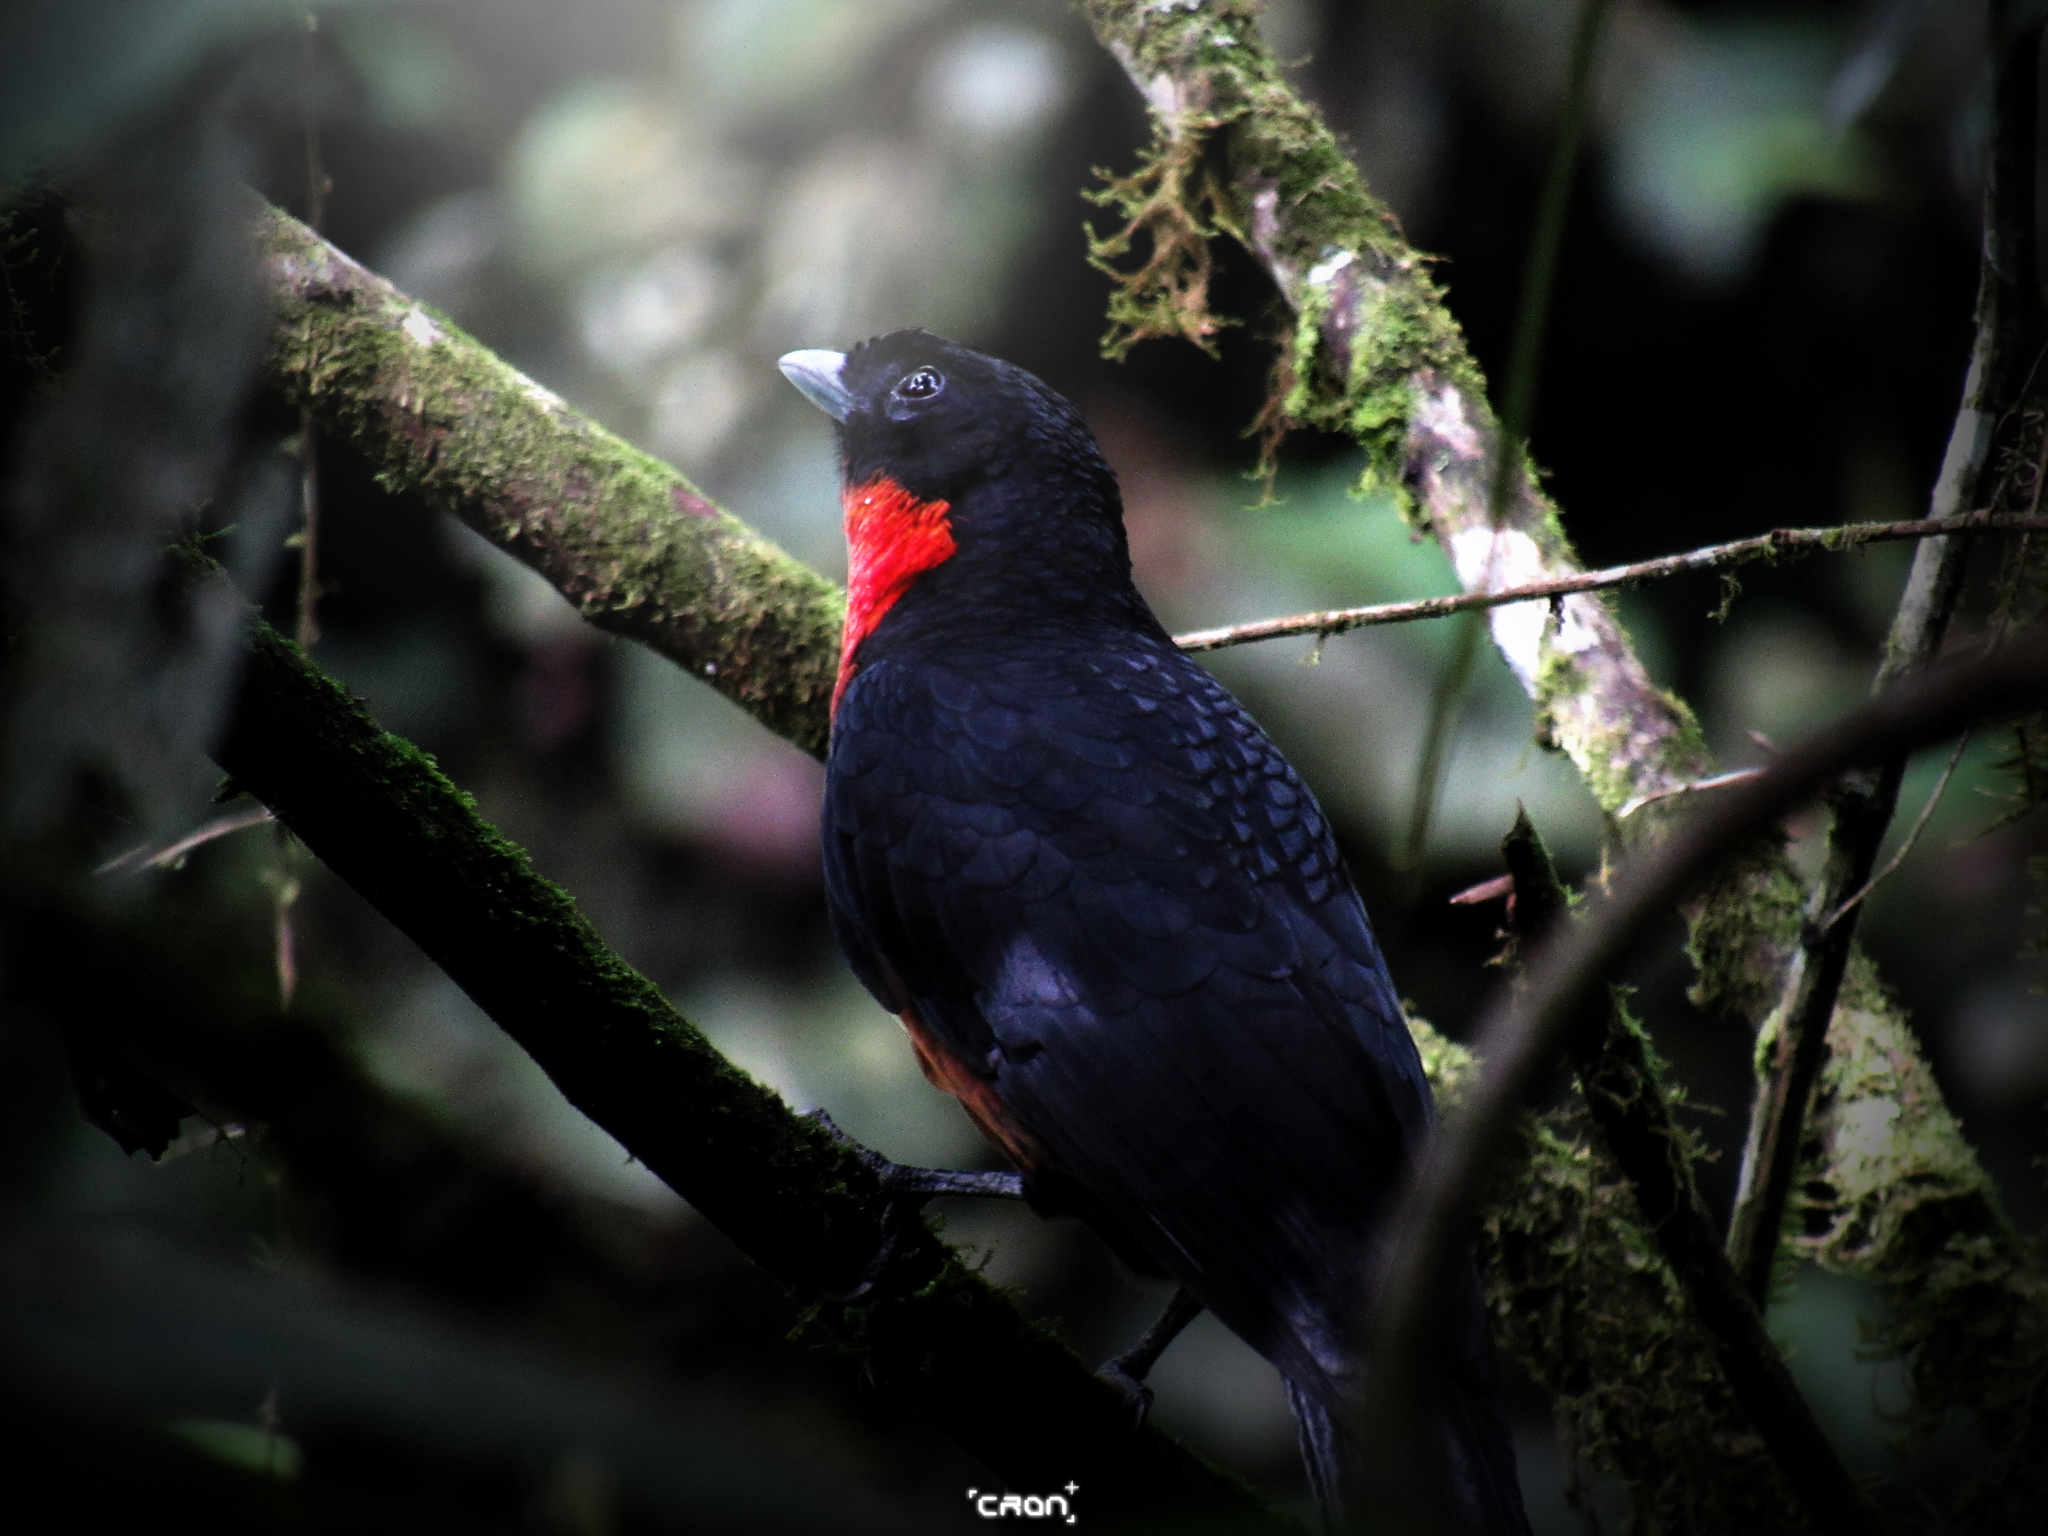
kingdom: Animalia
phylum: Chordata
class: Aves
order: Passeriformes
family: Cotingidae
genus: Pyroderus
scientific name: Pyroderus scutatus
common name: Red-ruffed fruitcrow
